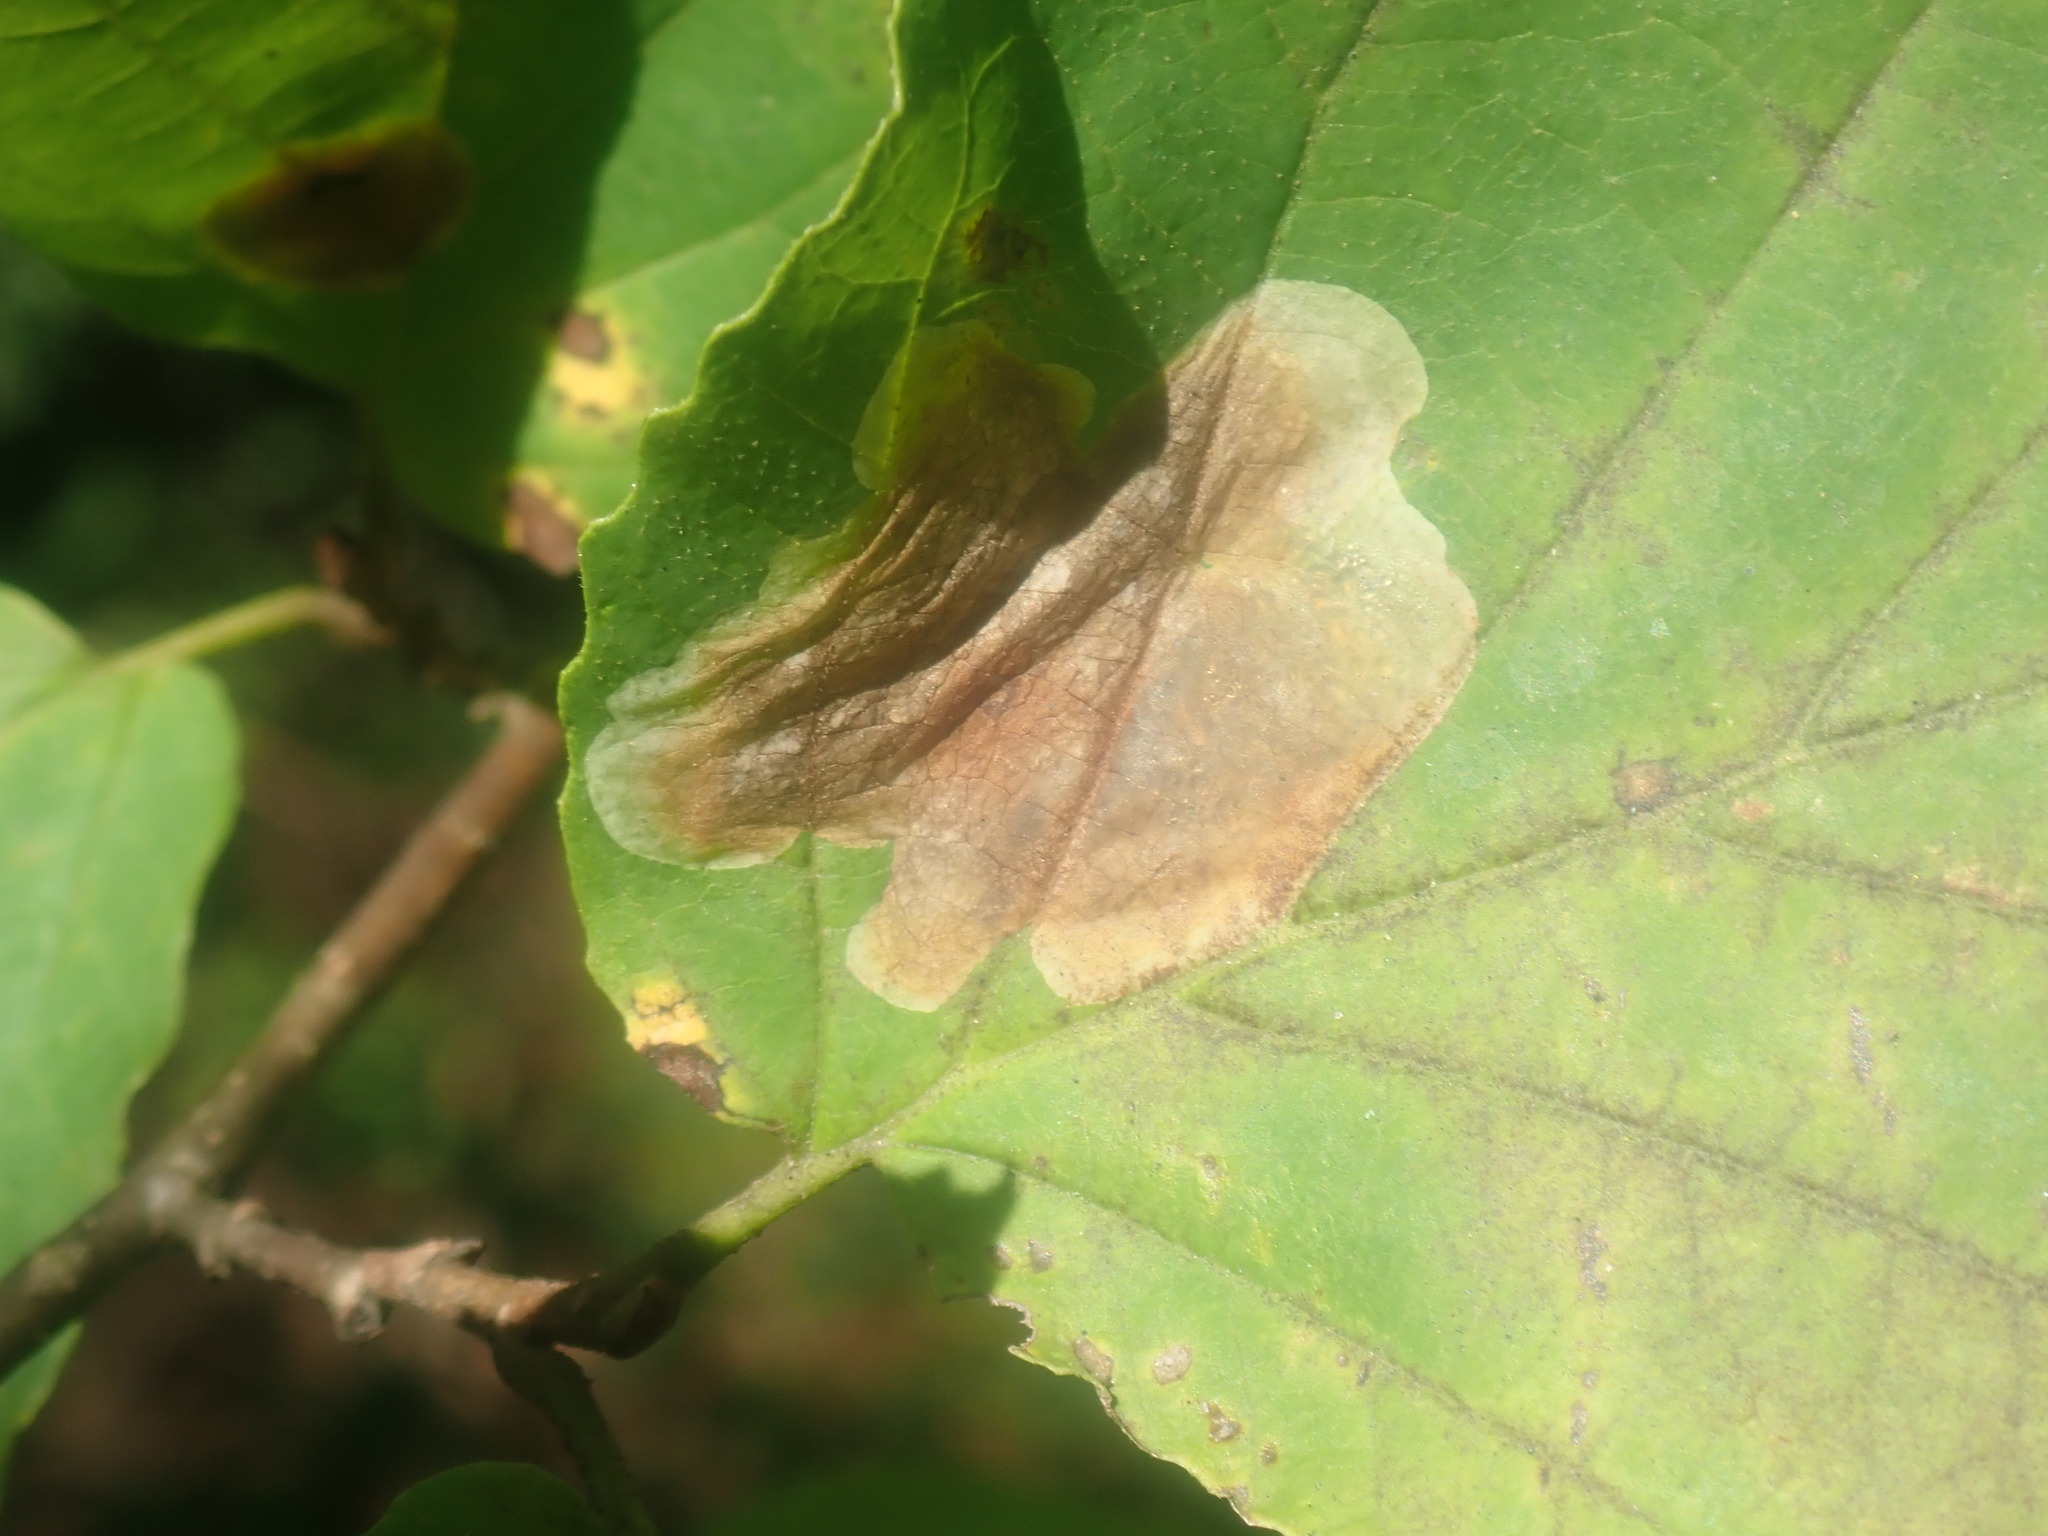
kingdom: Animalia
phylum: Arthropoda
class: Insecta
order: Lepidoptera
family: Gracillariidae
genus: Cameraria
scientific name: Cameraria hamameliella
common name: Witchhazel leafminer
